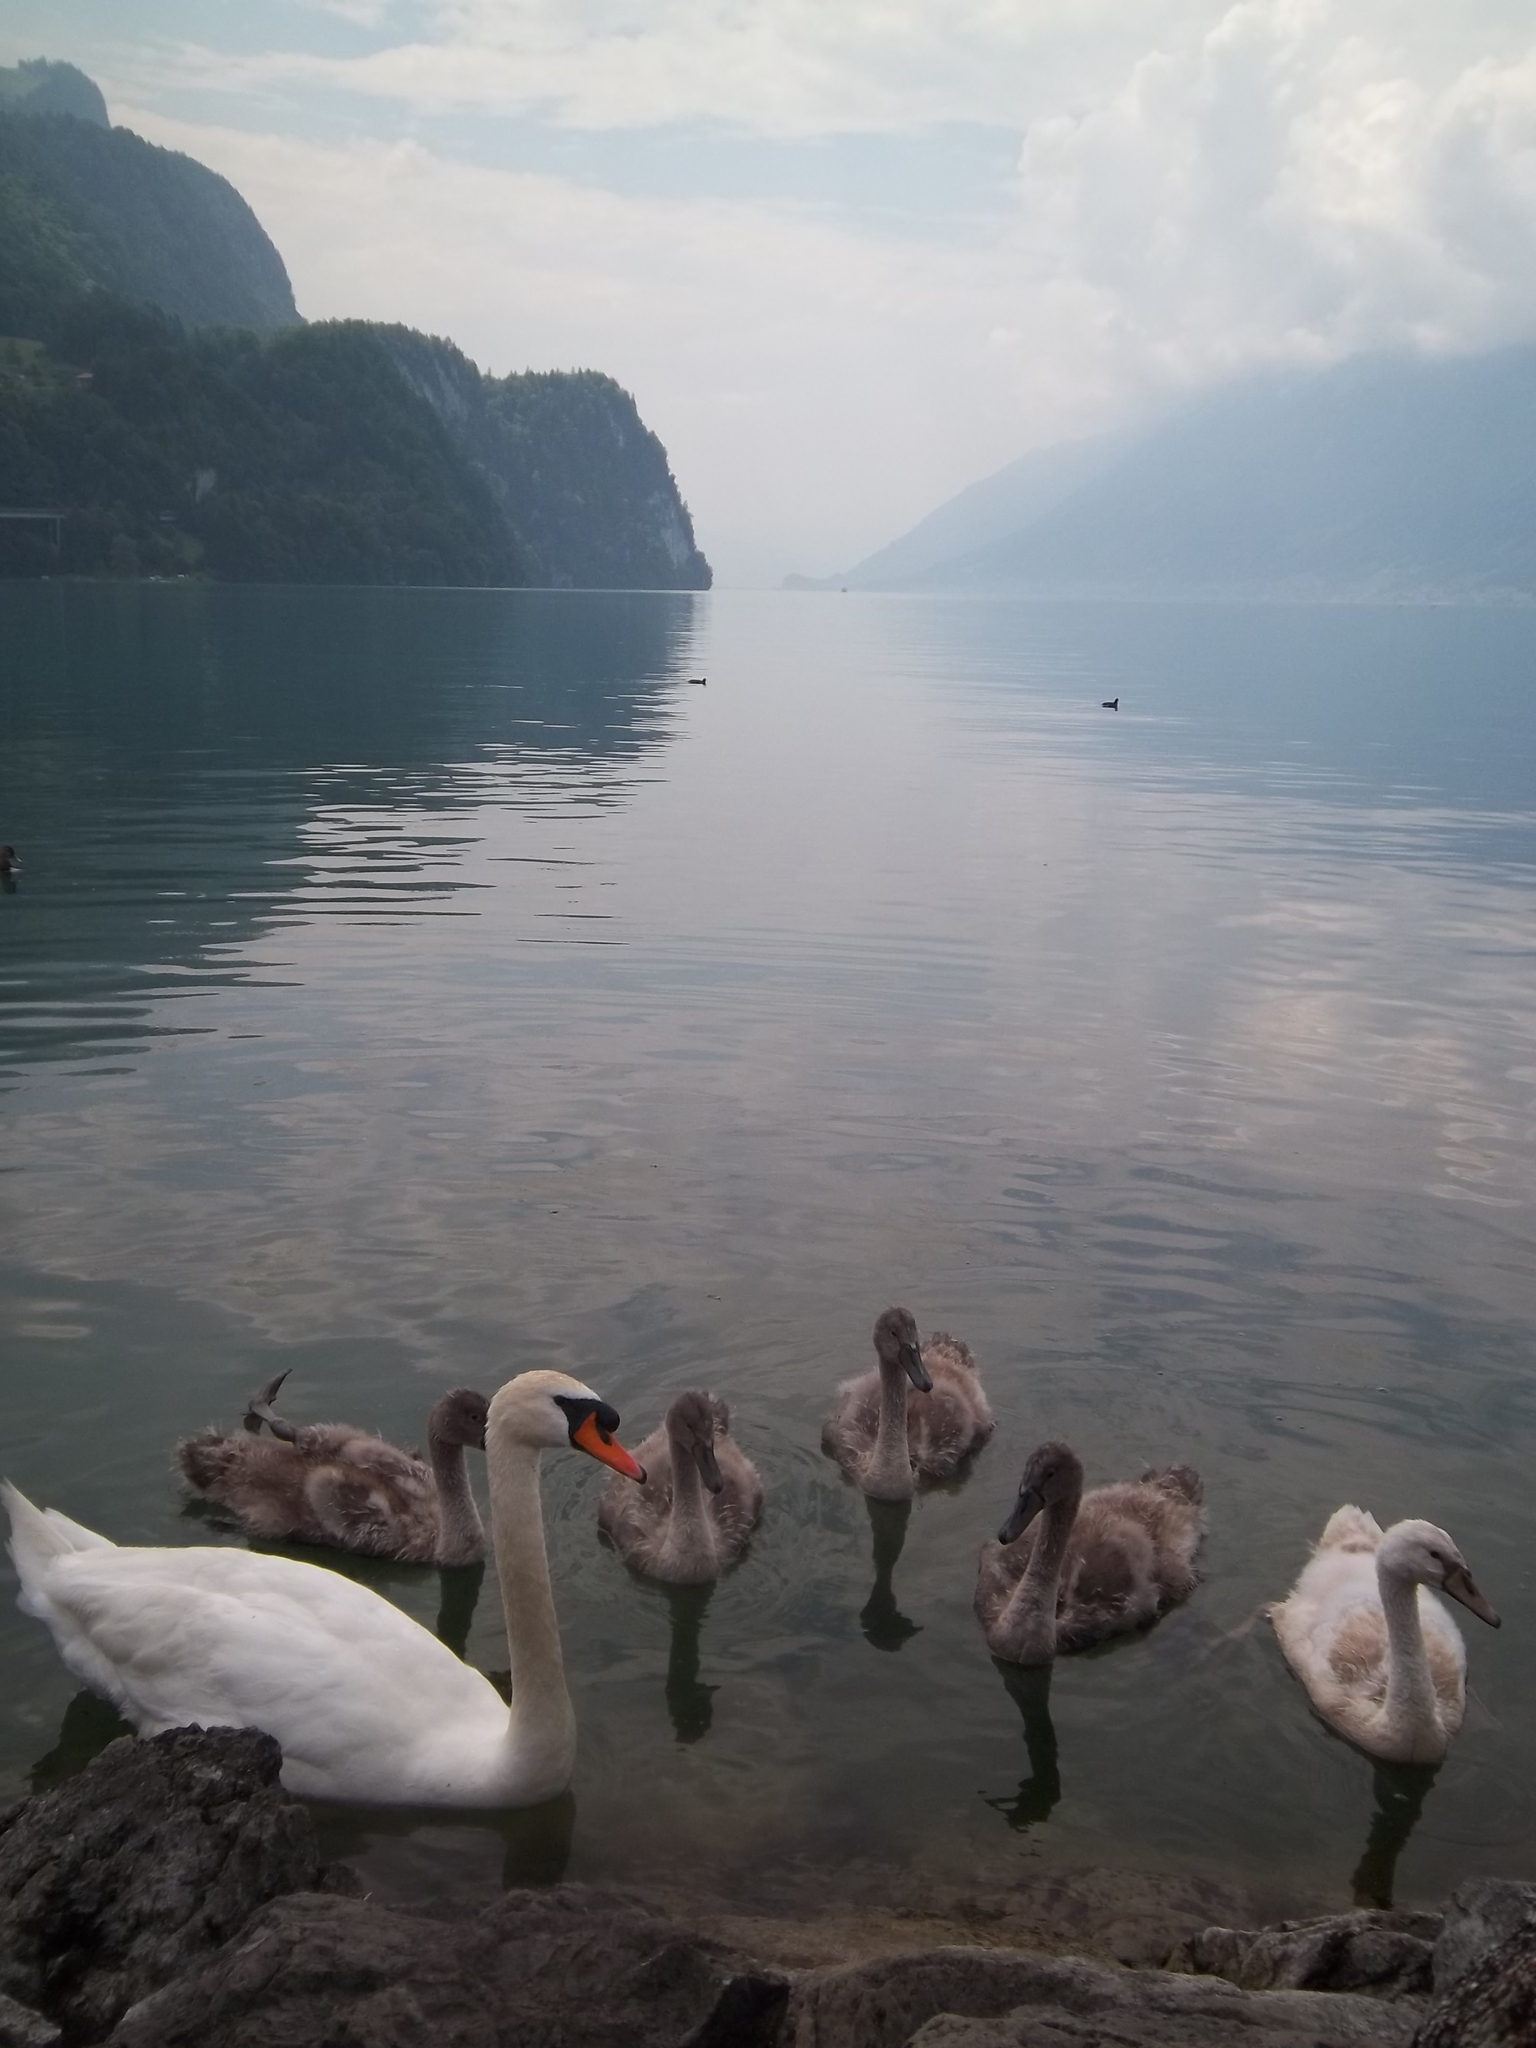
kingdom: Animalia
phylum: Chordata
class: Aves
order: Anseriformes
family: Anatidae
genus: Cygnus
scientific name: Cygnus olor
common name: Mute swan
